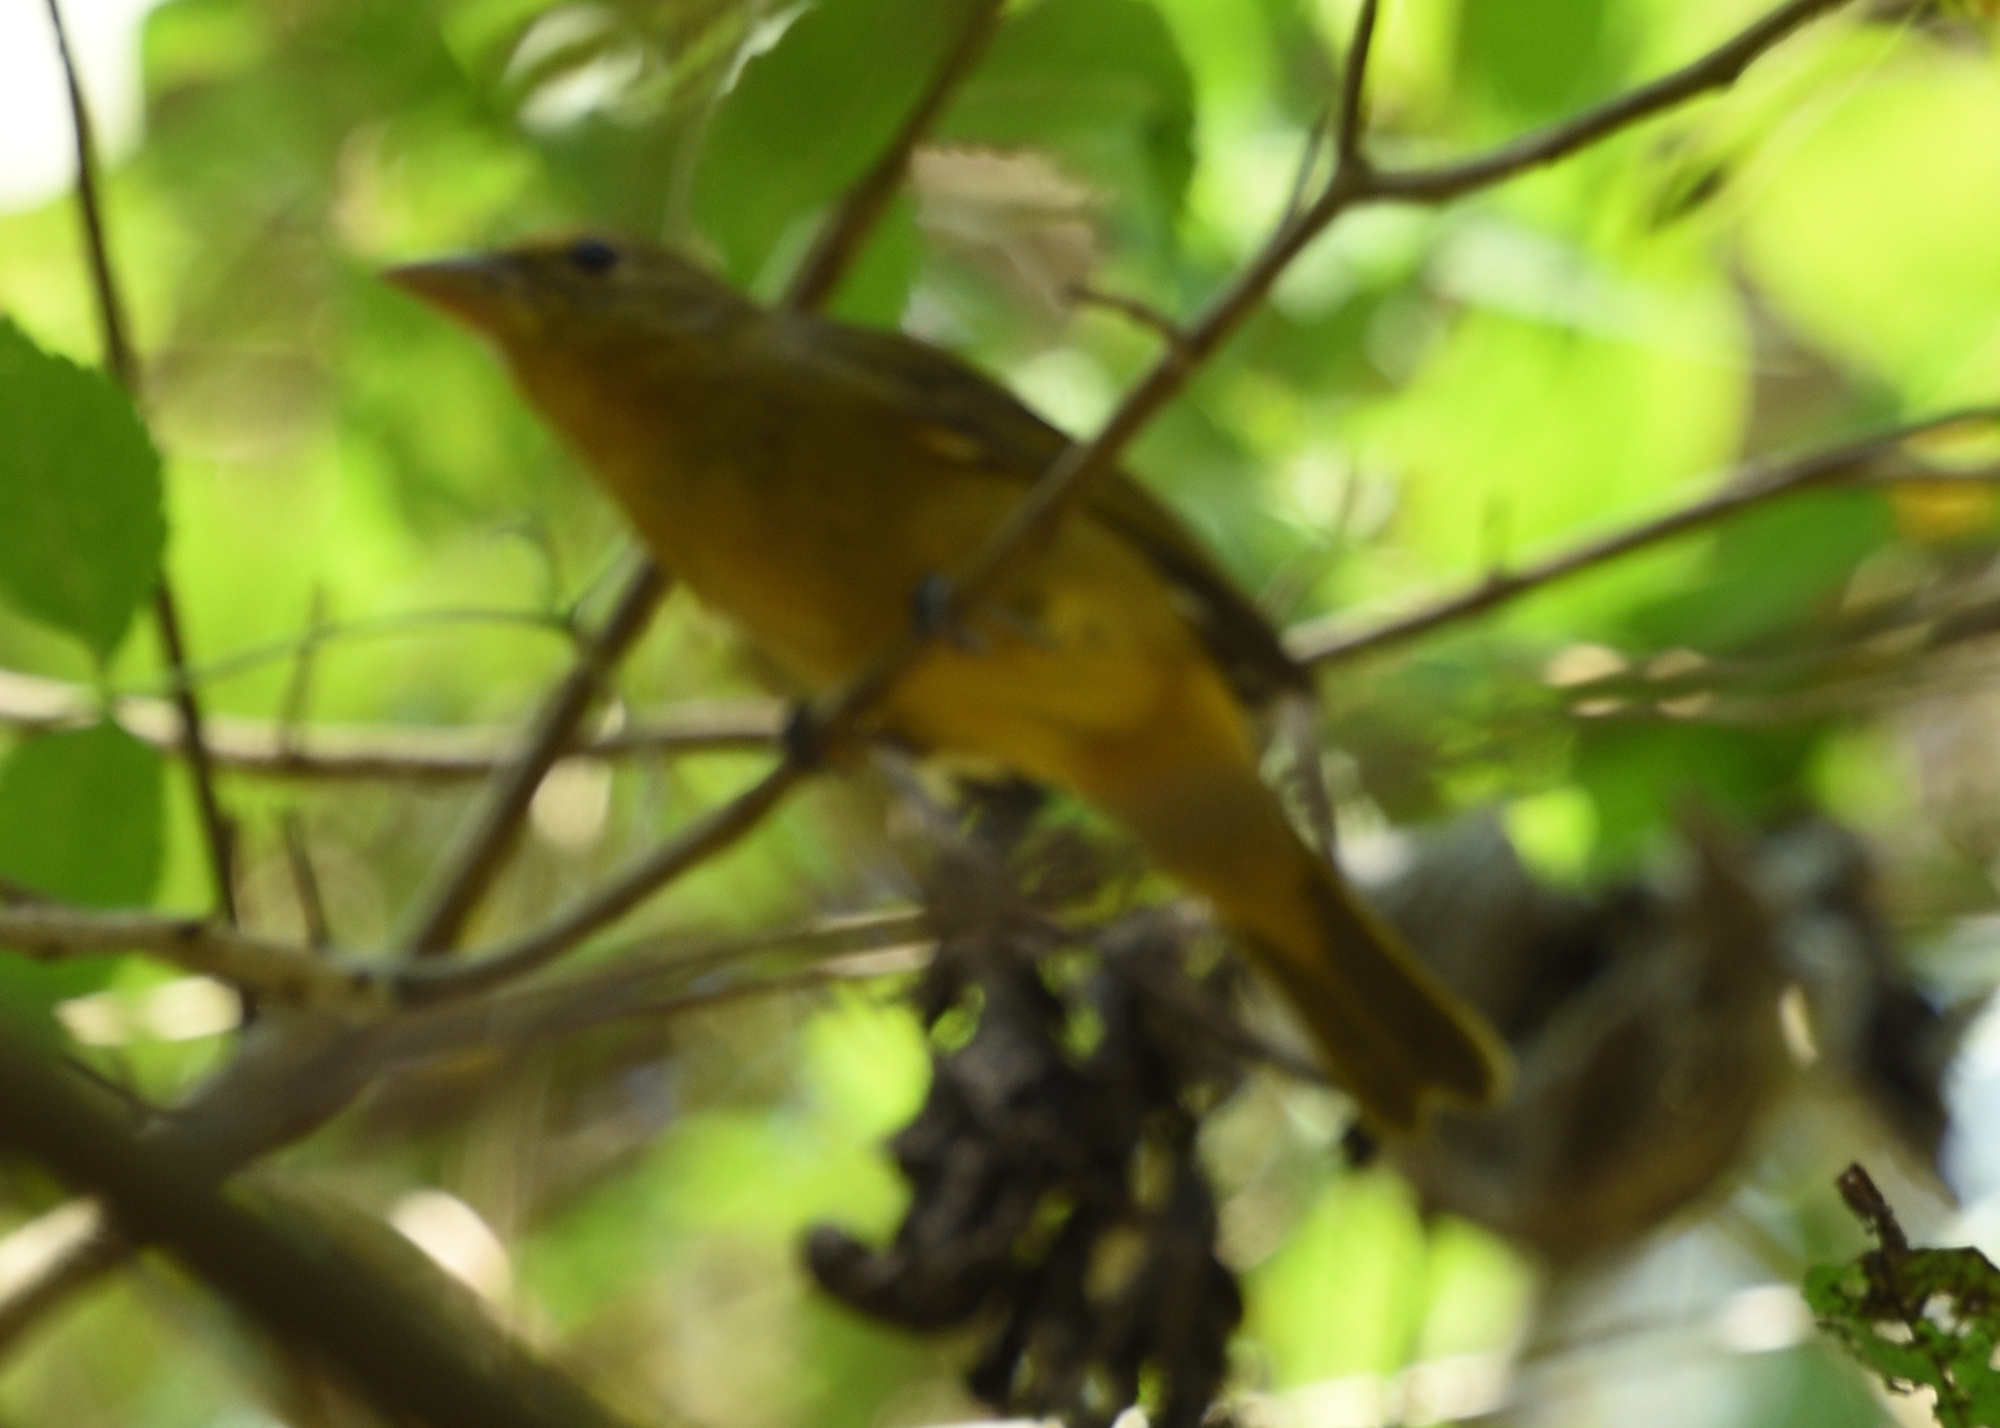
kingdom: Animalia
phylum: Chordata
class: Aves
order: Passeriformes
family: Cardinalidae
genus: Piranga
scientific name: Piranga rubra
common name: Summer tanager
